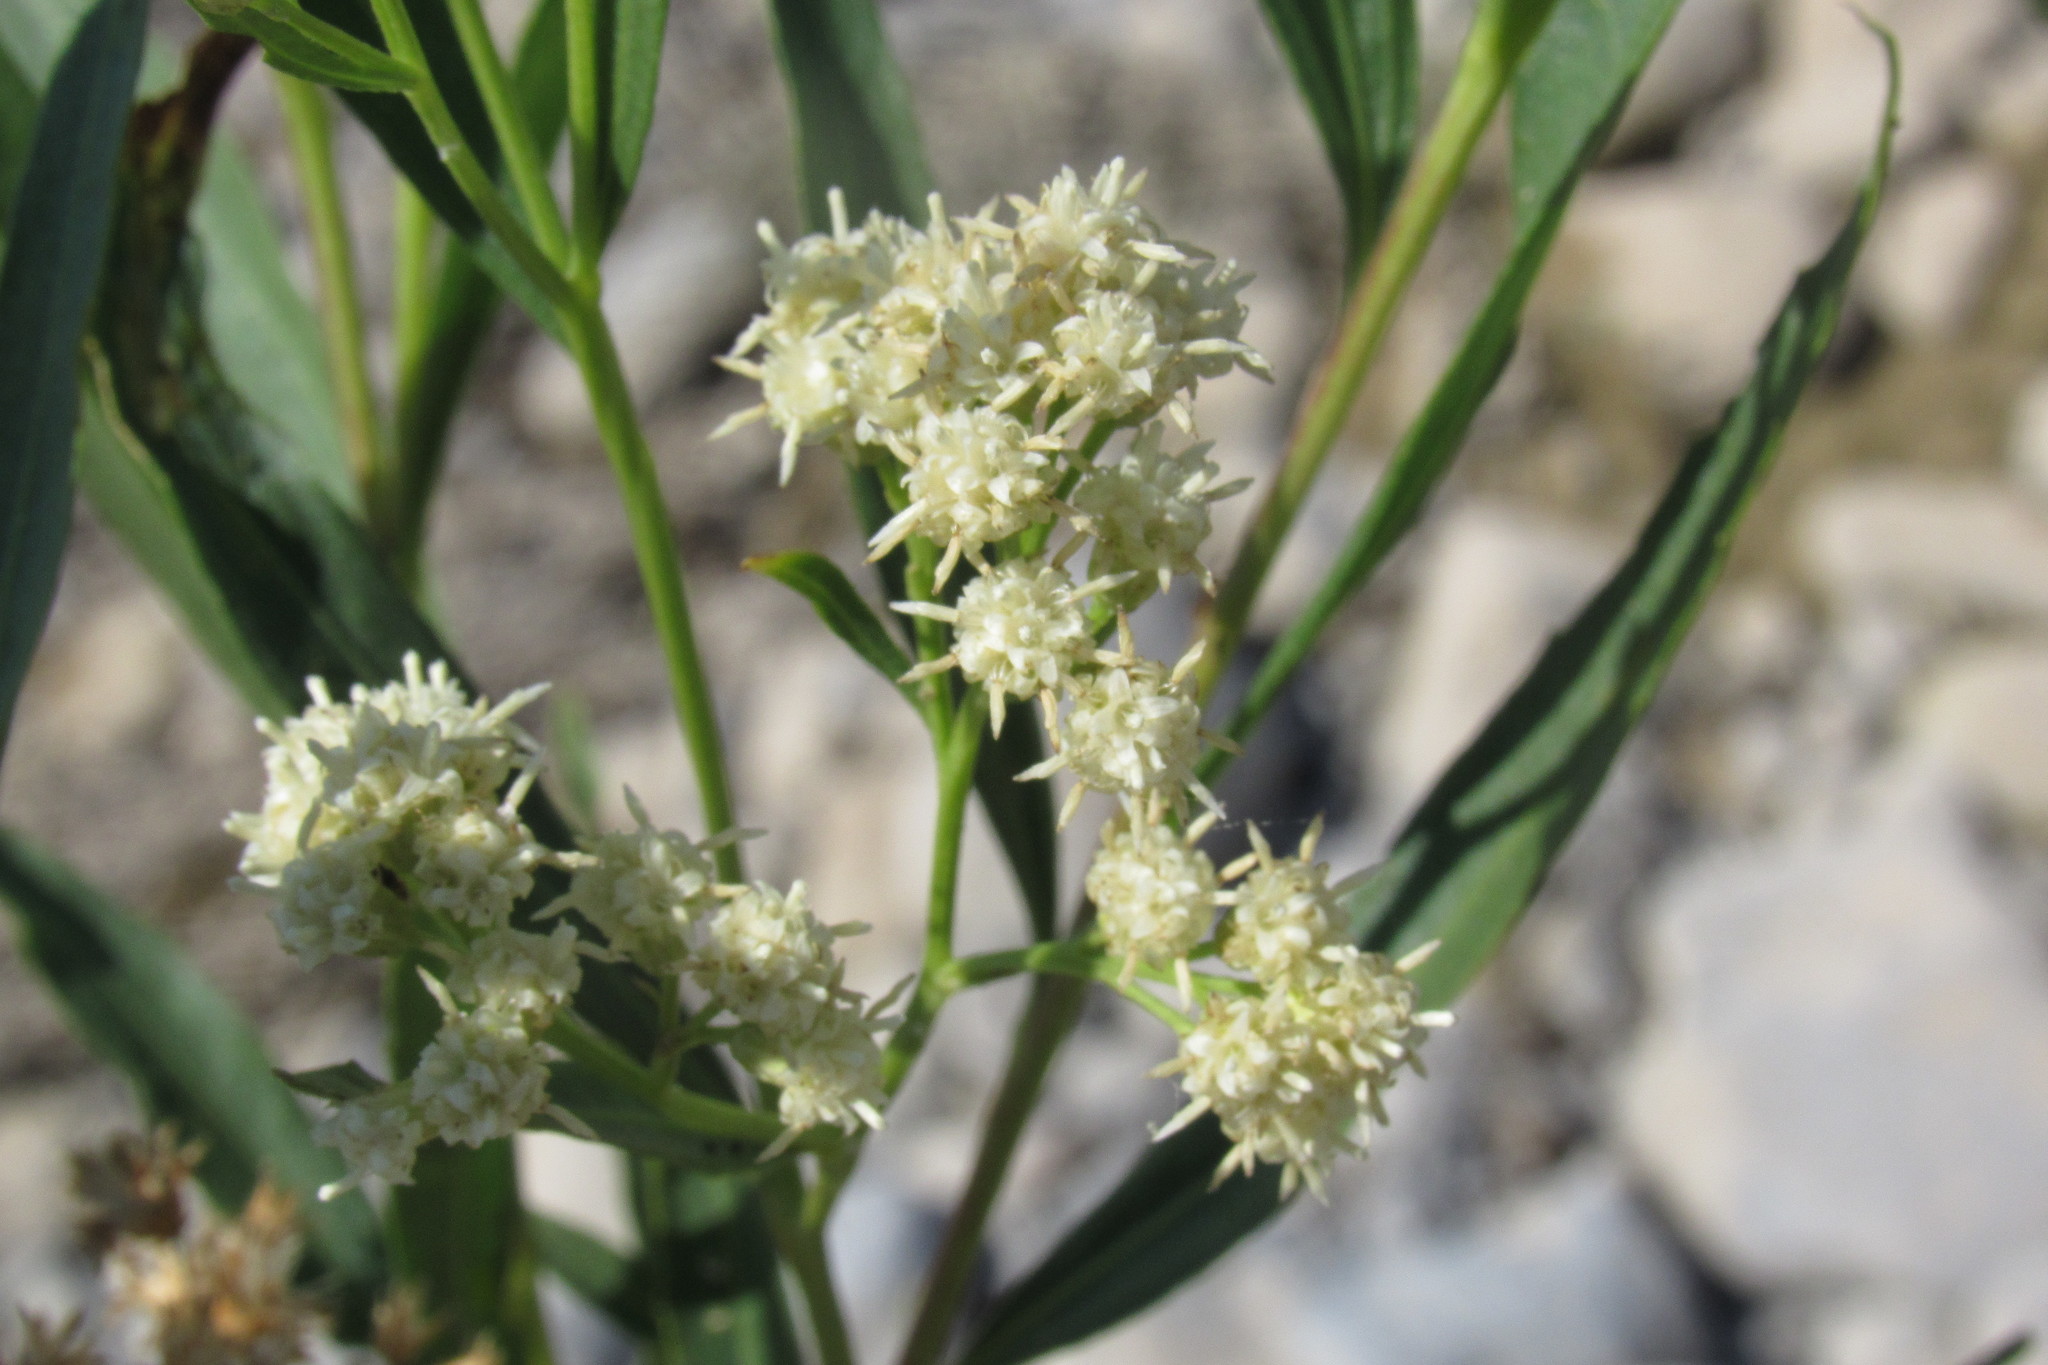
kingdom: Plantae
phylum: Tracheophyta
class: Magnoliopsida
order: Asterales
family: Asteraceae
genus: Baccharis
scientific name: Baccharis salicifolia
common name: Sticky baccharis
